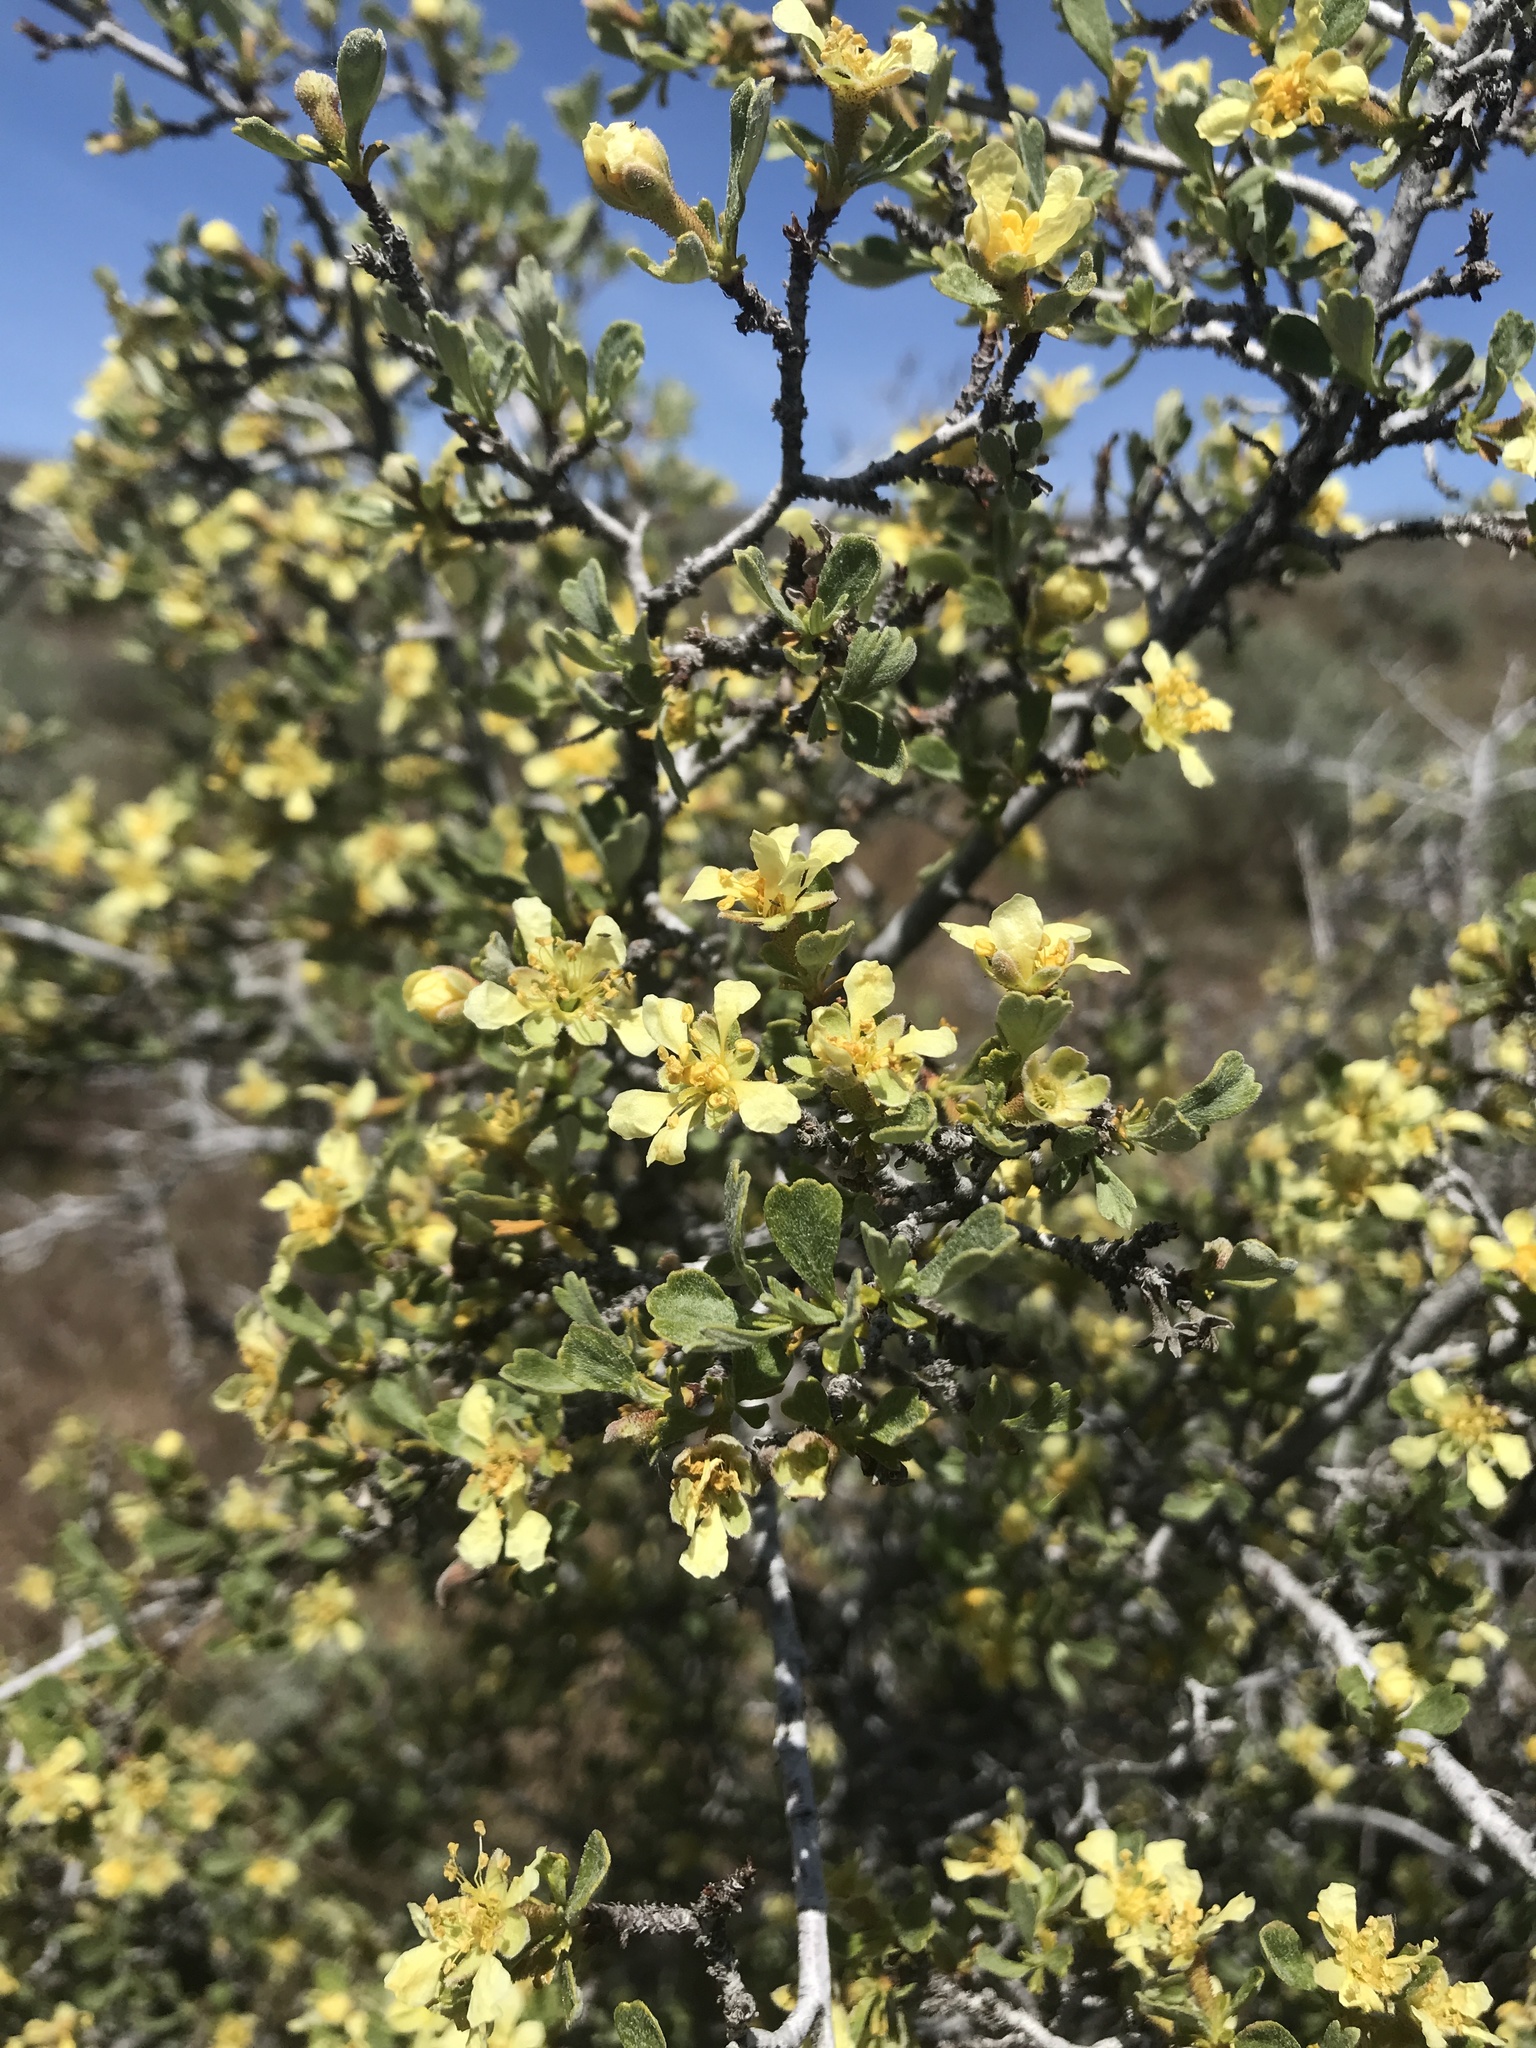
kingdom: Plantae
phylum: Tracheophyta
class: Magnoliopsida
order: Rosales
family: Rosaceae
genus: Purshia
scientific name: Purshia tridentata
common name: Antelope bitterbrush
